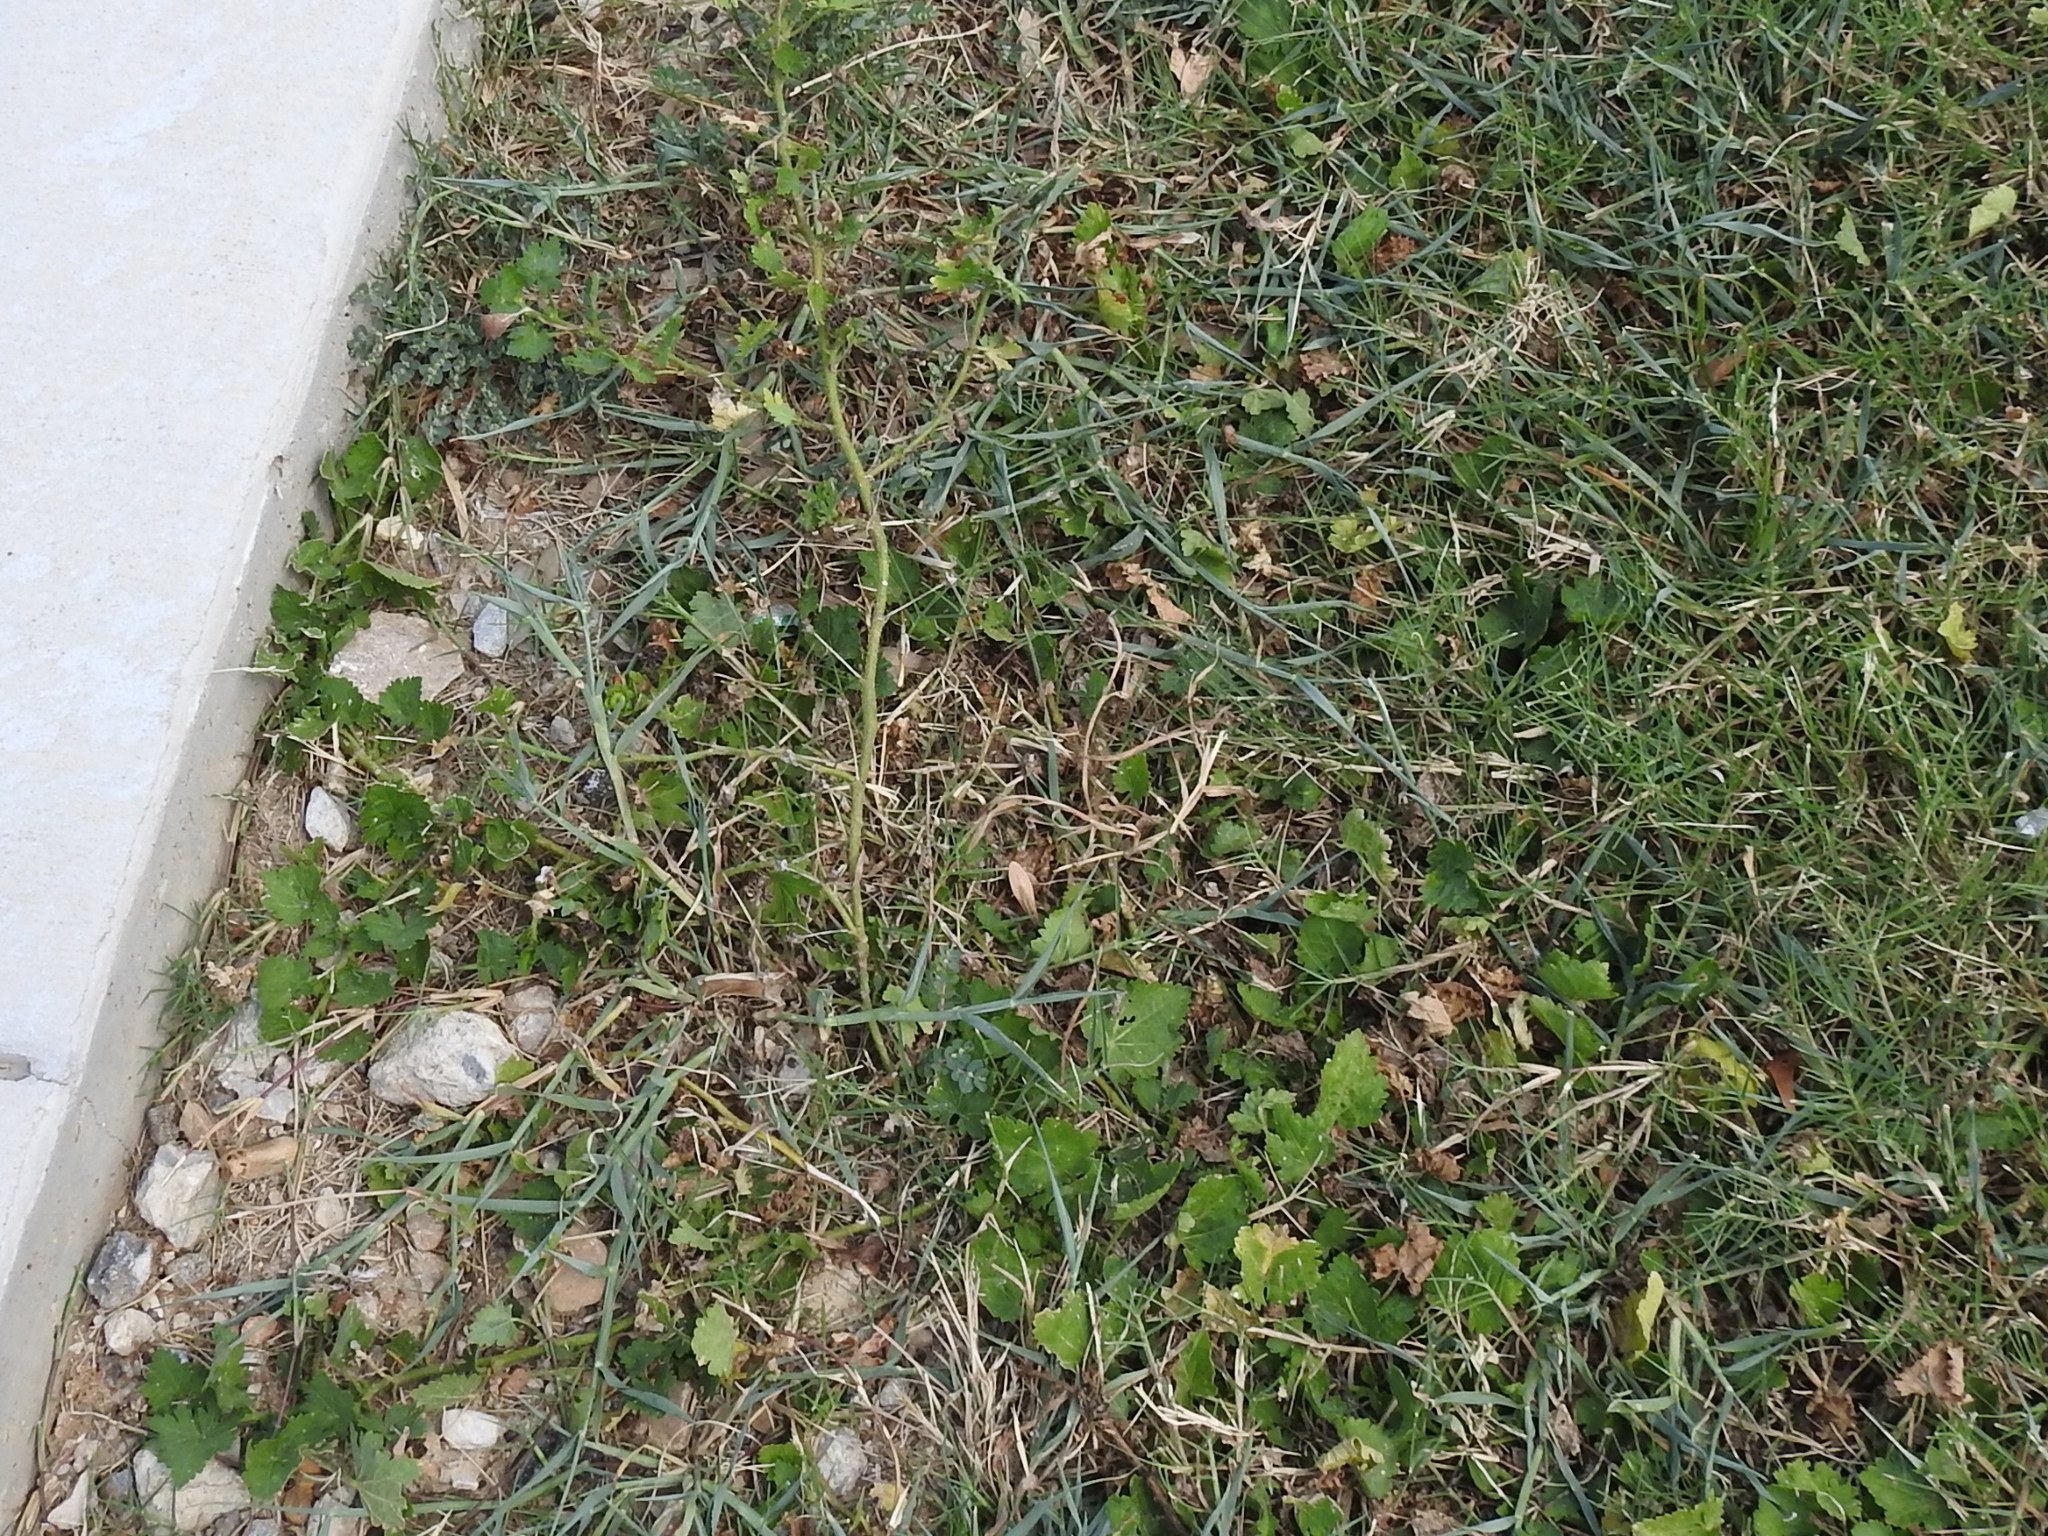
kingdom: Plantae
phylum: Tracheophyta
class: Magnoliopsida
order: Malvales
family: Malvaceae
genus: Modiola
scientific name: Modiola caroliniana
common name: Carolina bristlemallow
